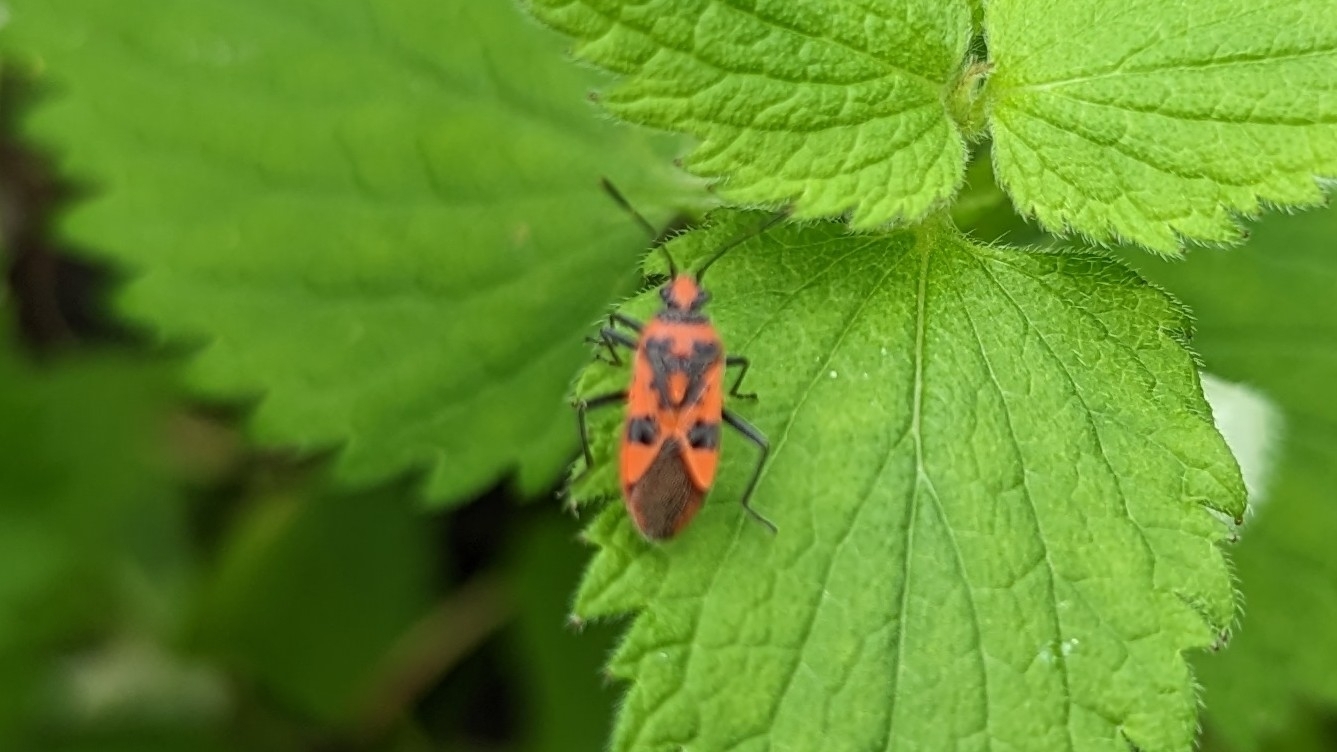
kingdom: Animalia
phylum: Arthropoda
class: Insecta
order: Hemiptera
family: Rhopalidae
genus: Corizus
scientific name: Corizus hyoscyami
